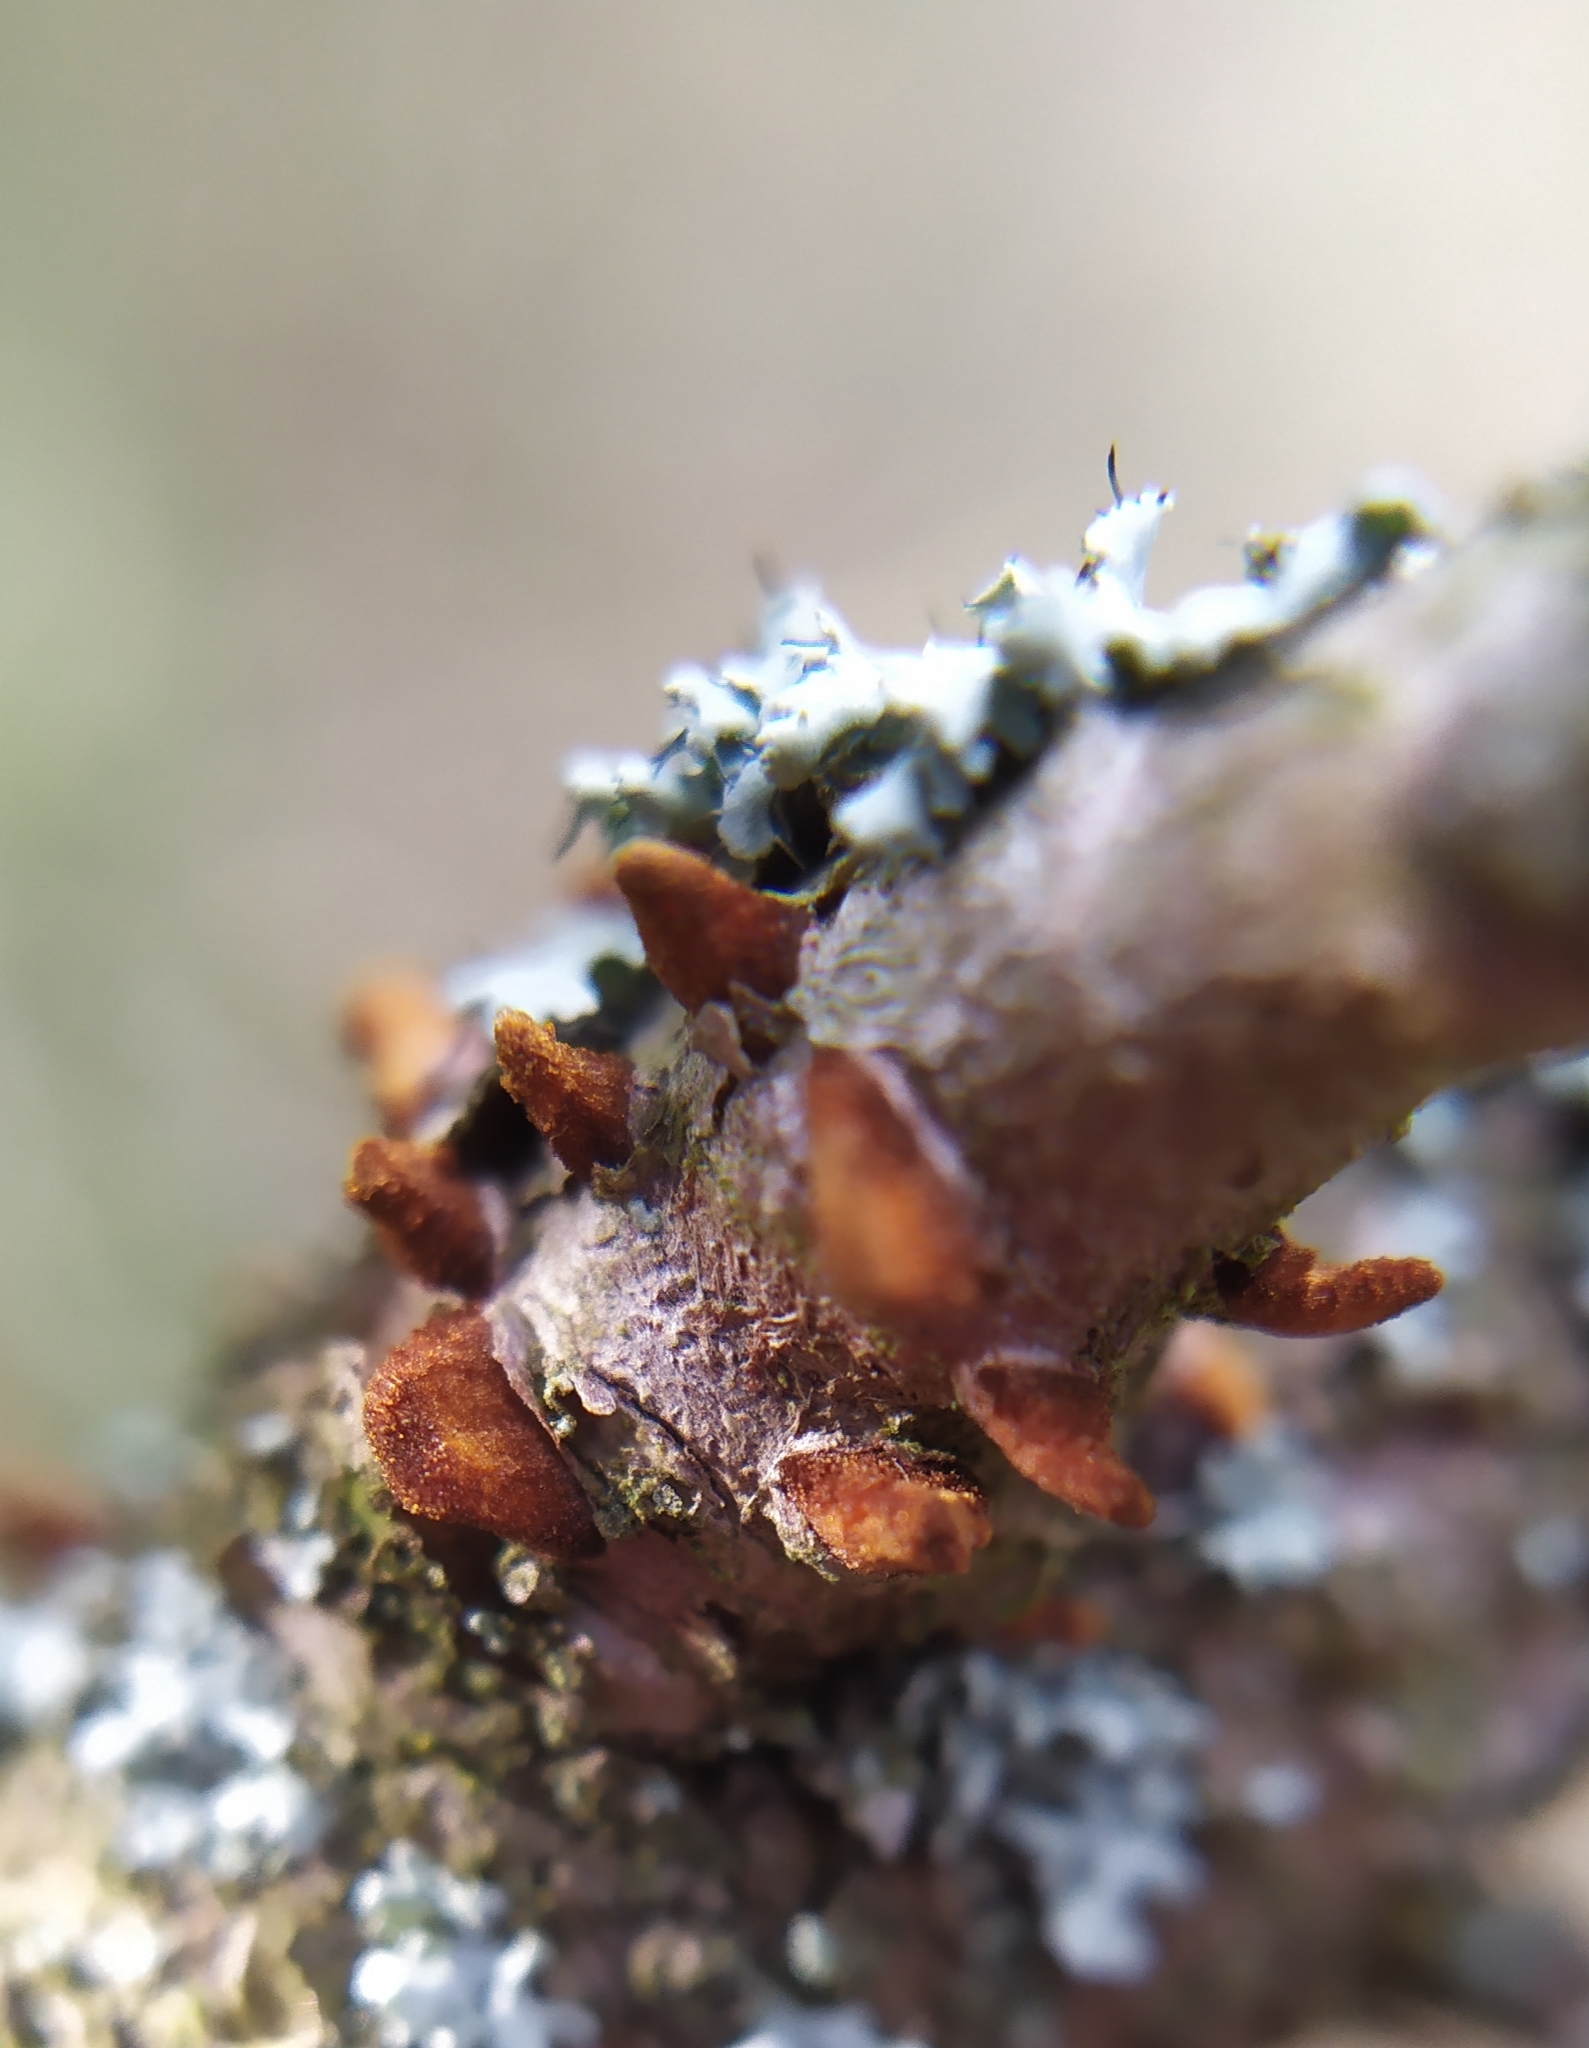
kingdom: Fungi
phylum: Basidiomycota
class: Pucciniomycetes
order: Pucciniales
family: Gymnosporangiaceae
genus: Gymnosporangium
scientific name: Gymnosporangium clavariiforme
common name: Tongues of fire
